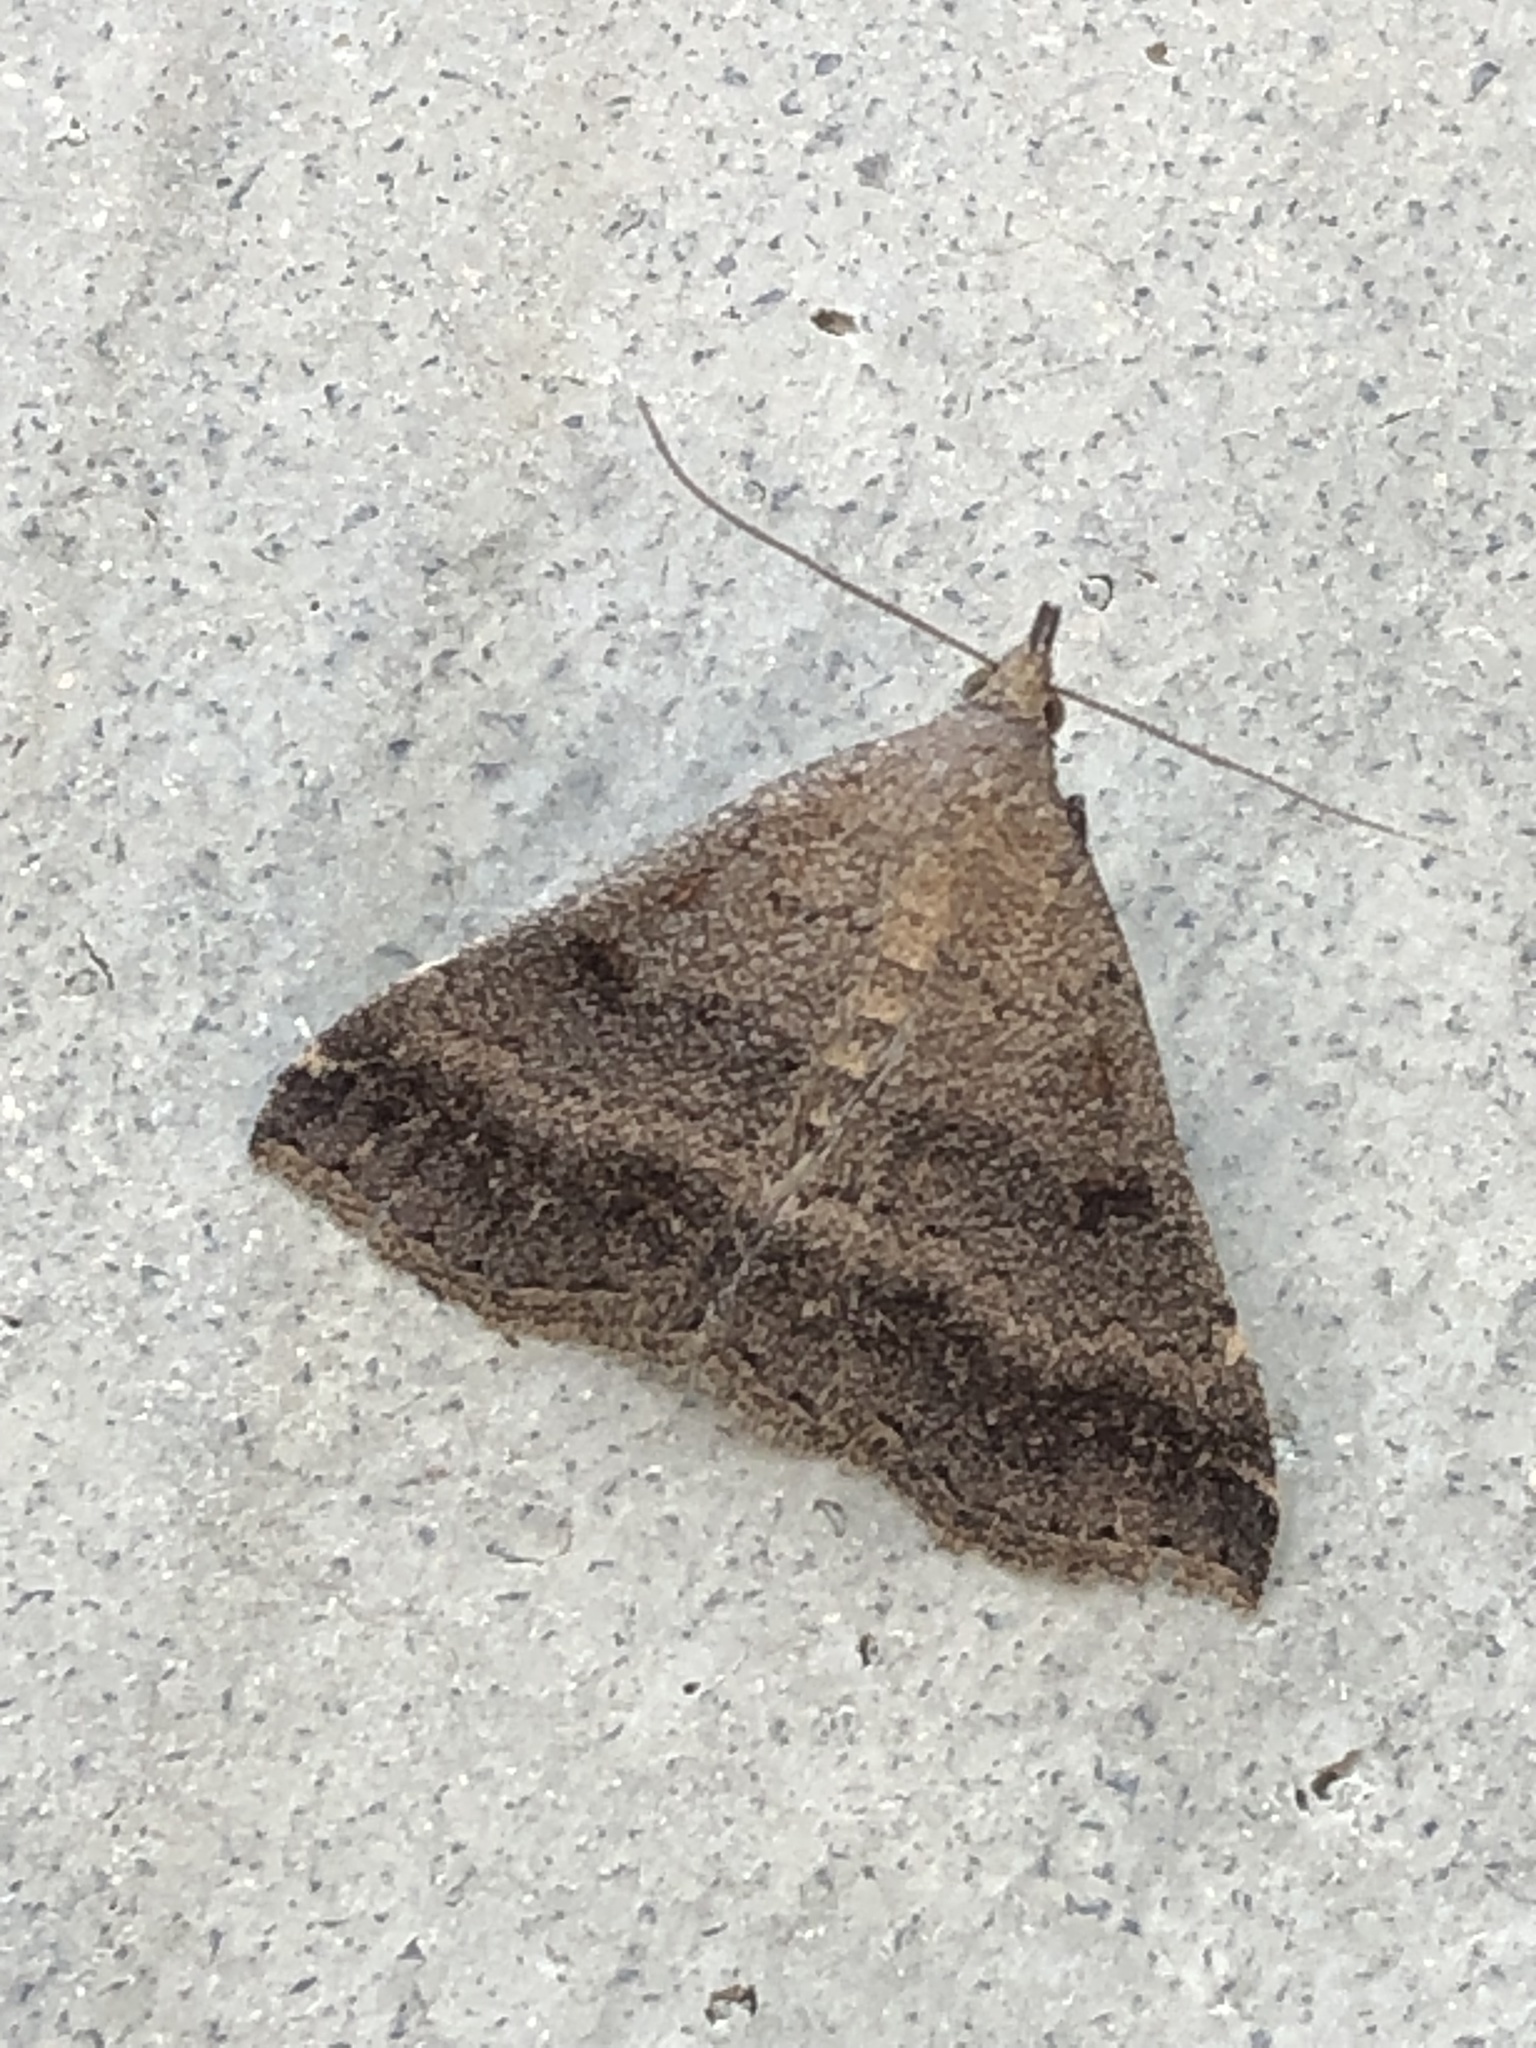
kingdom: Animalia
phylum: Arthropoda
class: Insecta
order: Lepidoptera
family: Erebidae
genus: Tetanolita
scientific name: Tetanolita palligera
